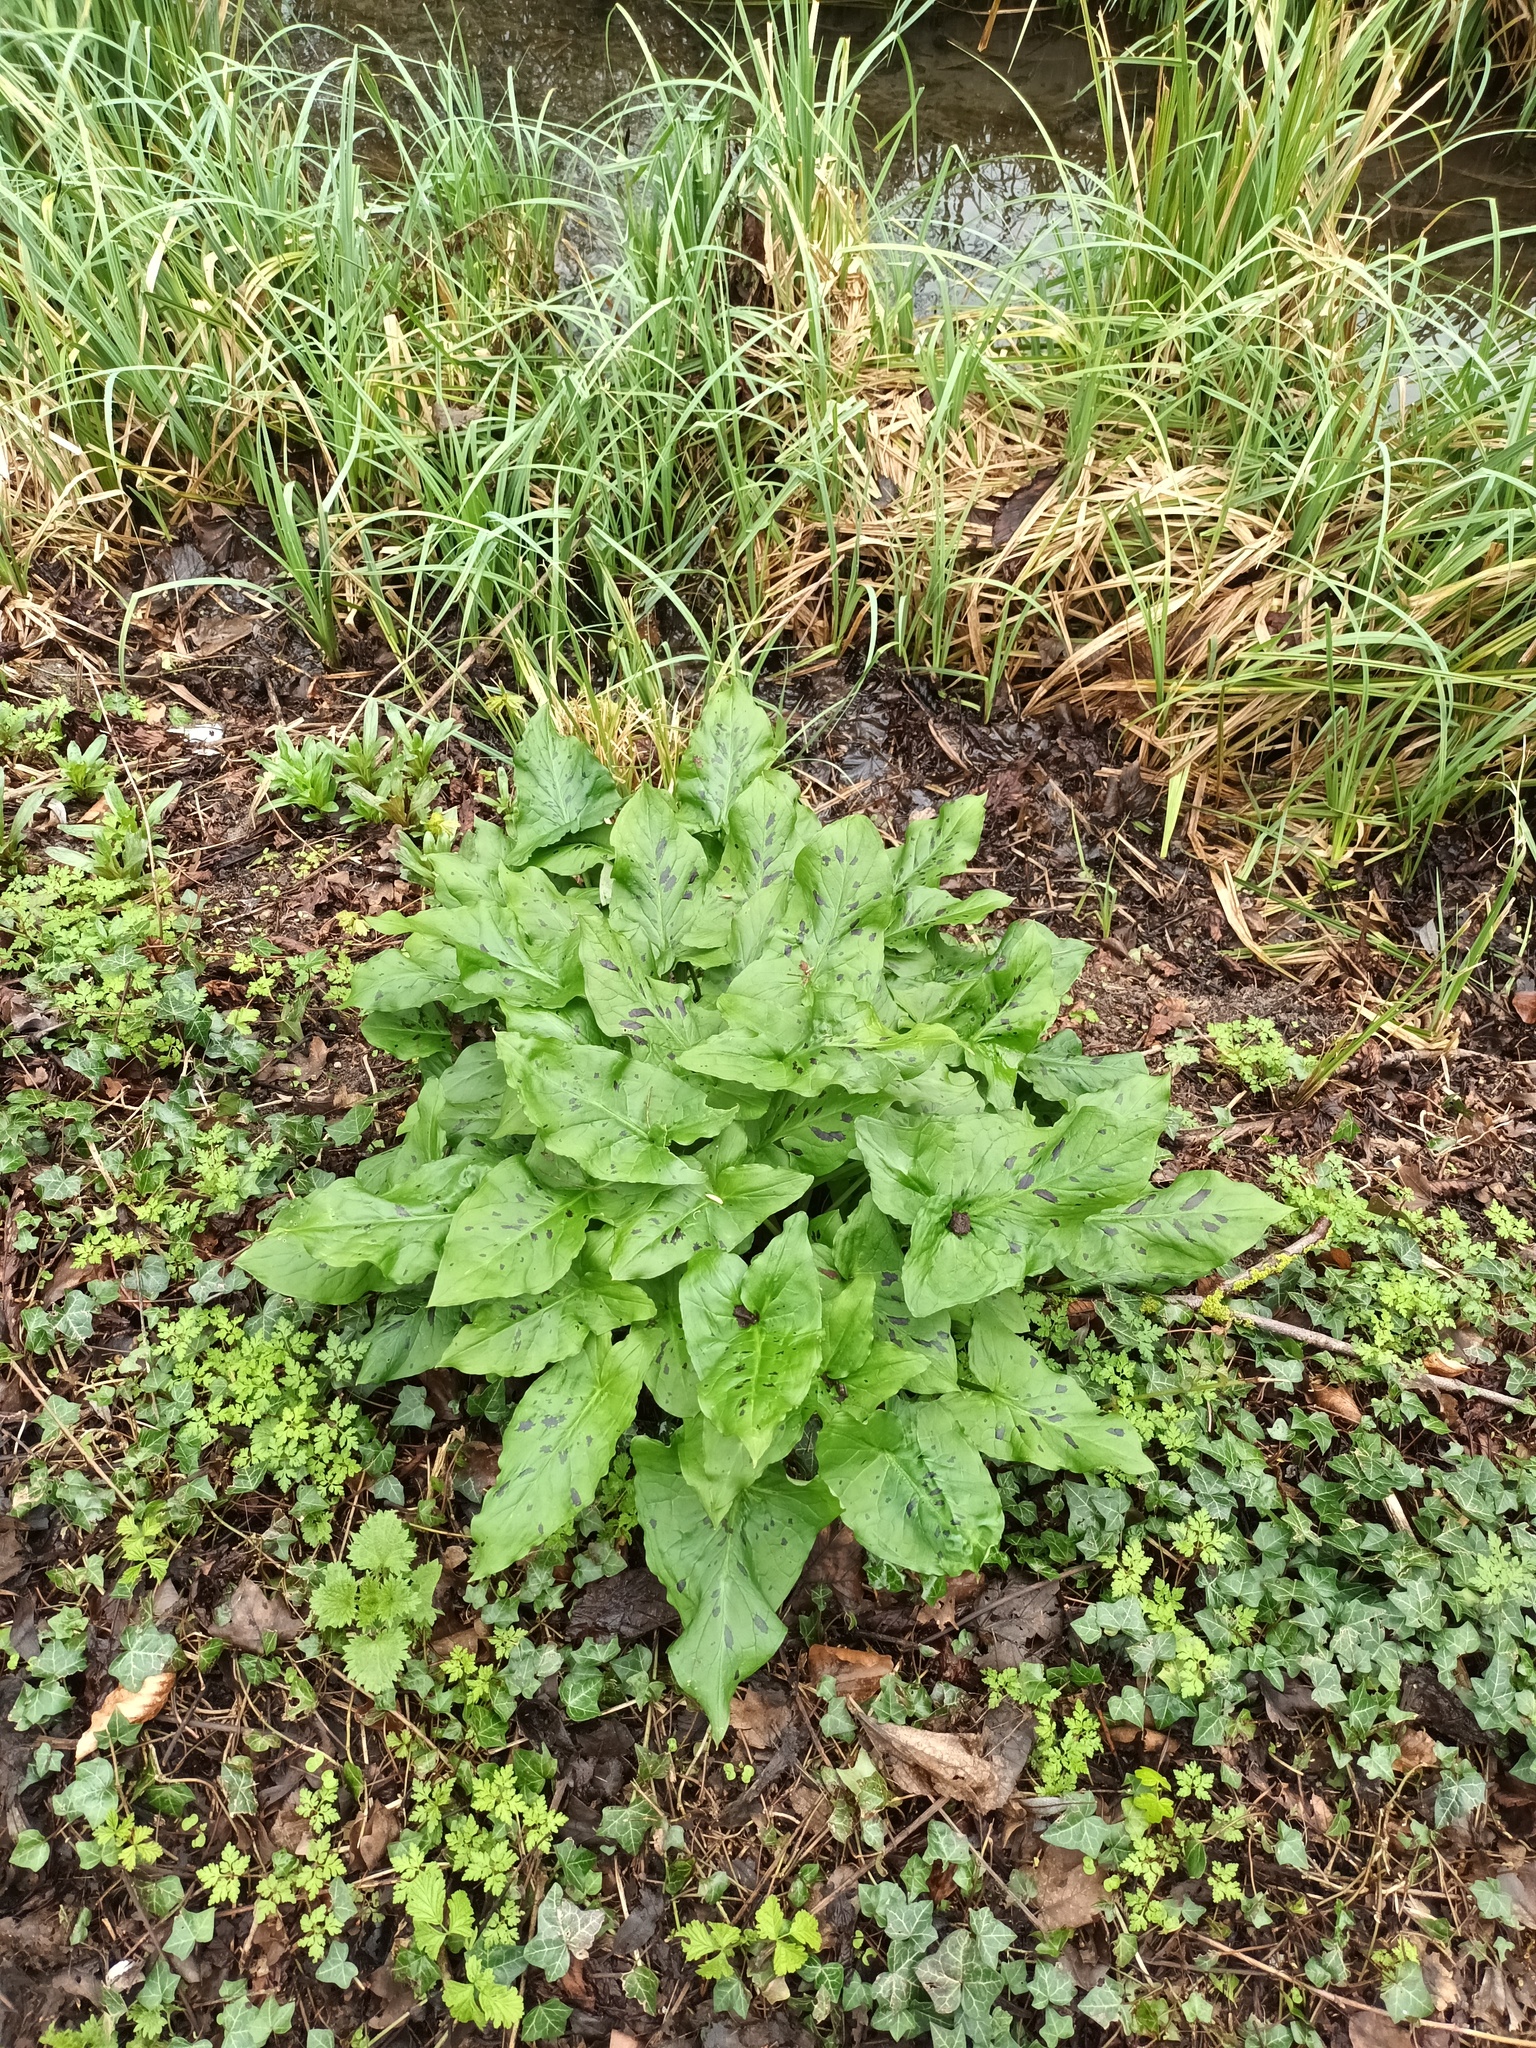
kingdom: Plantae
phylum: Tracheophyta
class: Liliopsida
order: Alismatales
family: Araceae
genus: Arum
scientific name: Arum maculatum
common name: Lords-and-ladies
